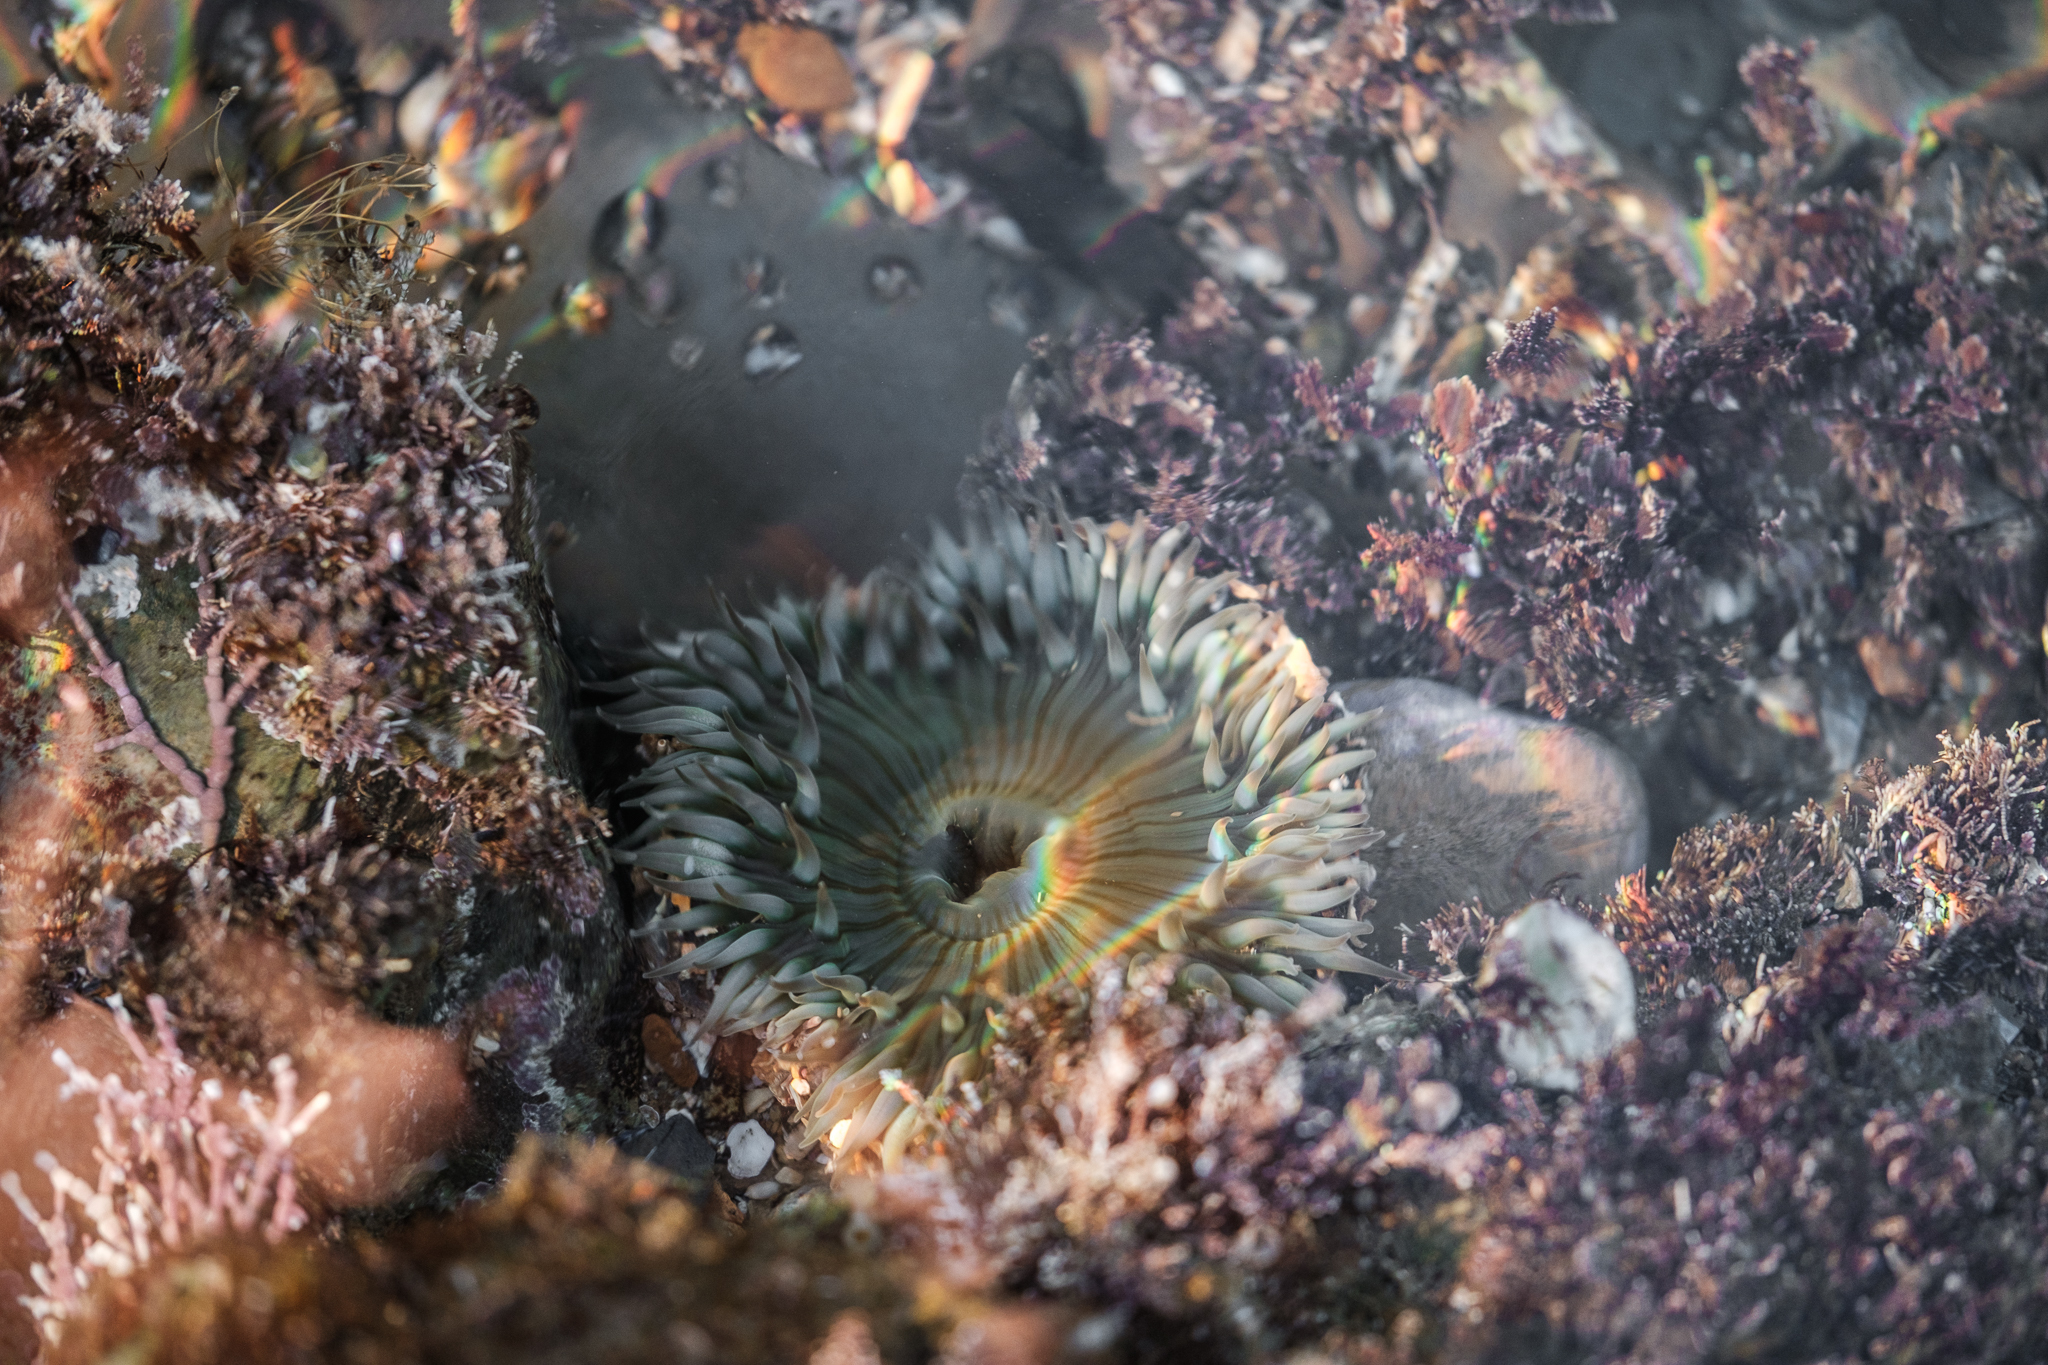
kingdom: Animalia
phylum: Cnidaria
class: Anthozoa
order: Actiniaria
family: Actiniidae
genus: Anthopleura
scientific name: Anthopleura sola
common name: Sun anemone
